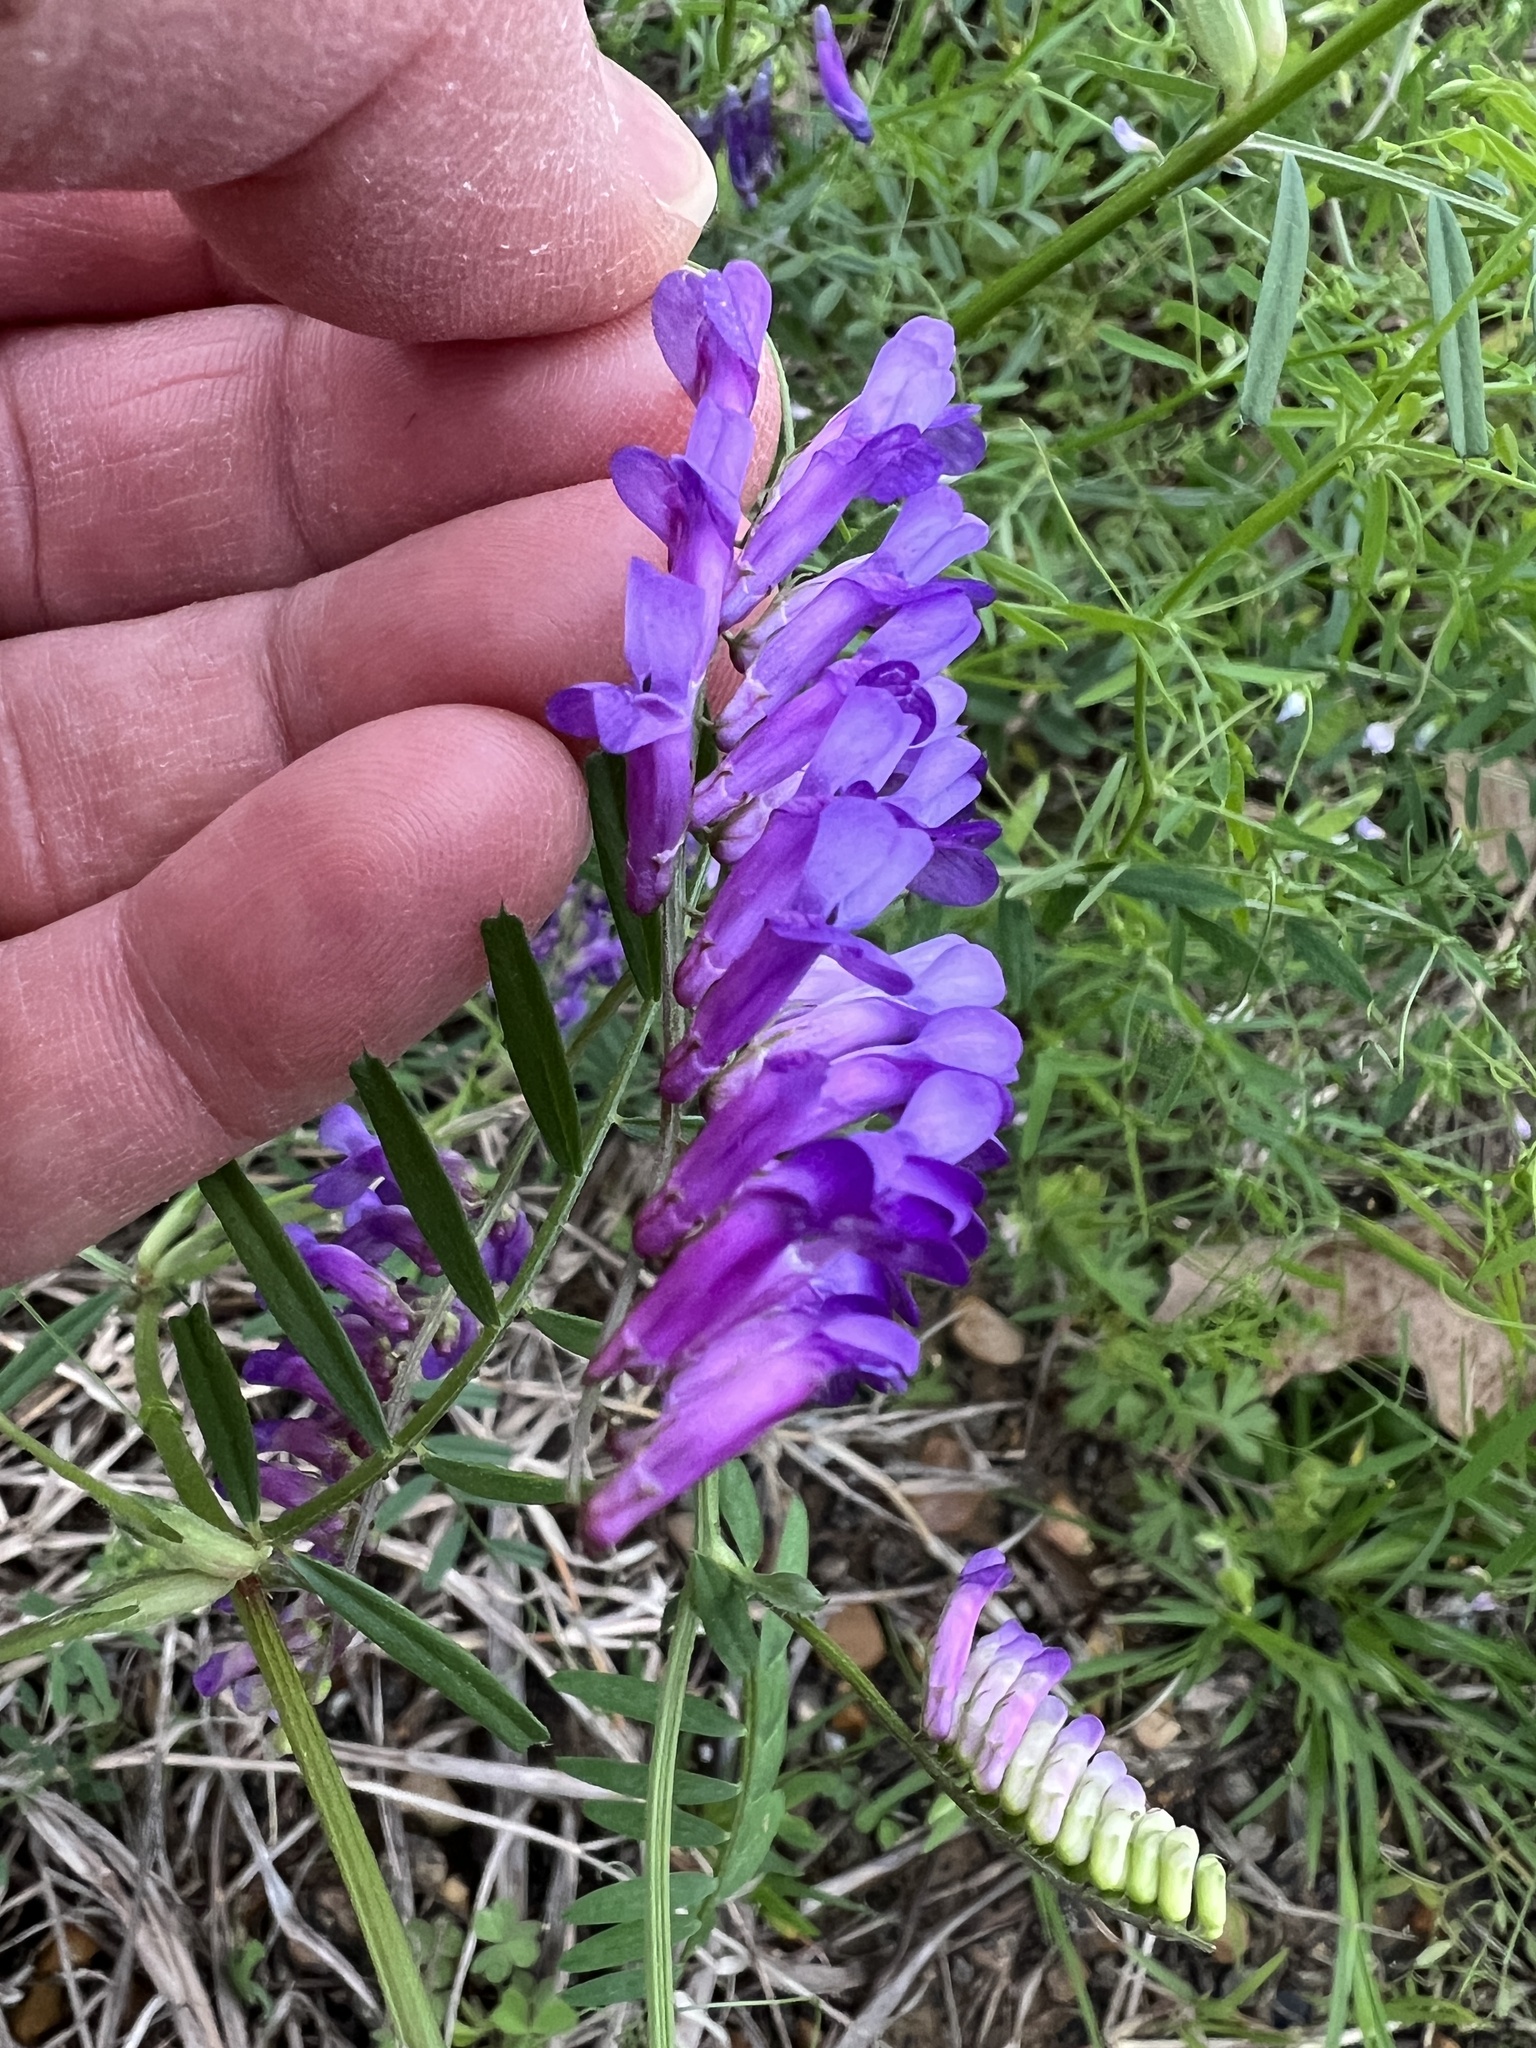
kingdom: Plantae
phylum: Tracheophyta
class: Magnoliopsida
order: Fabales
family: Fabaceae
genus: Vicia
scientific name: Vicia villosa
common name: Fodder vetch
